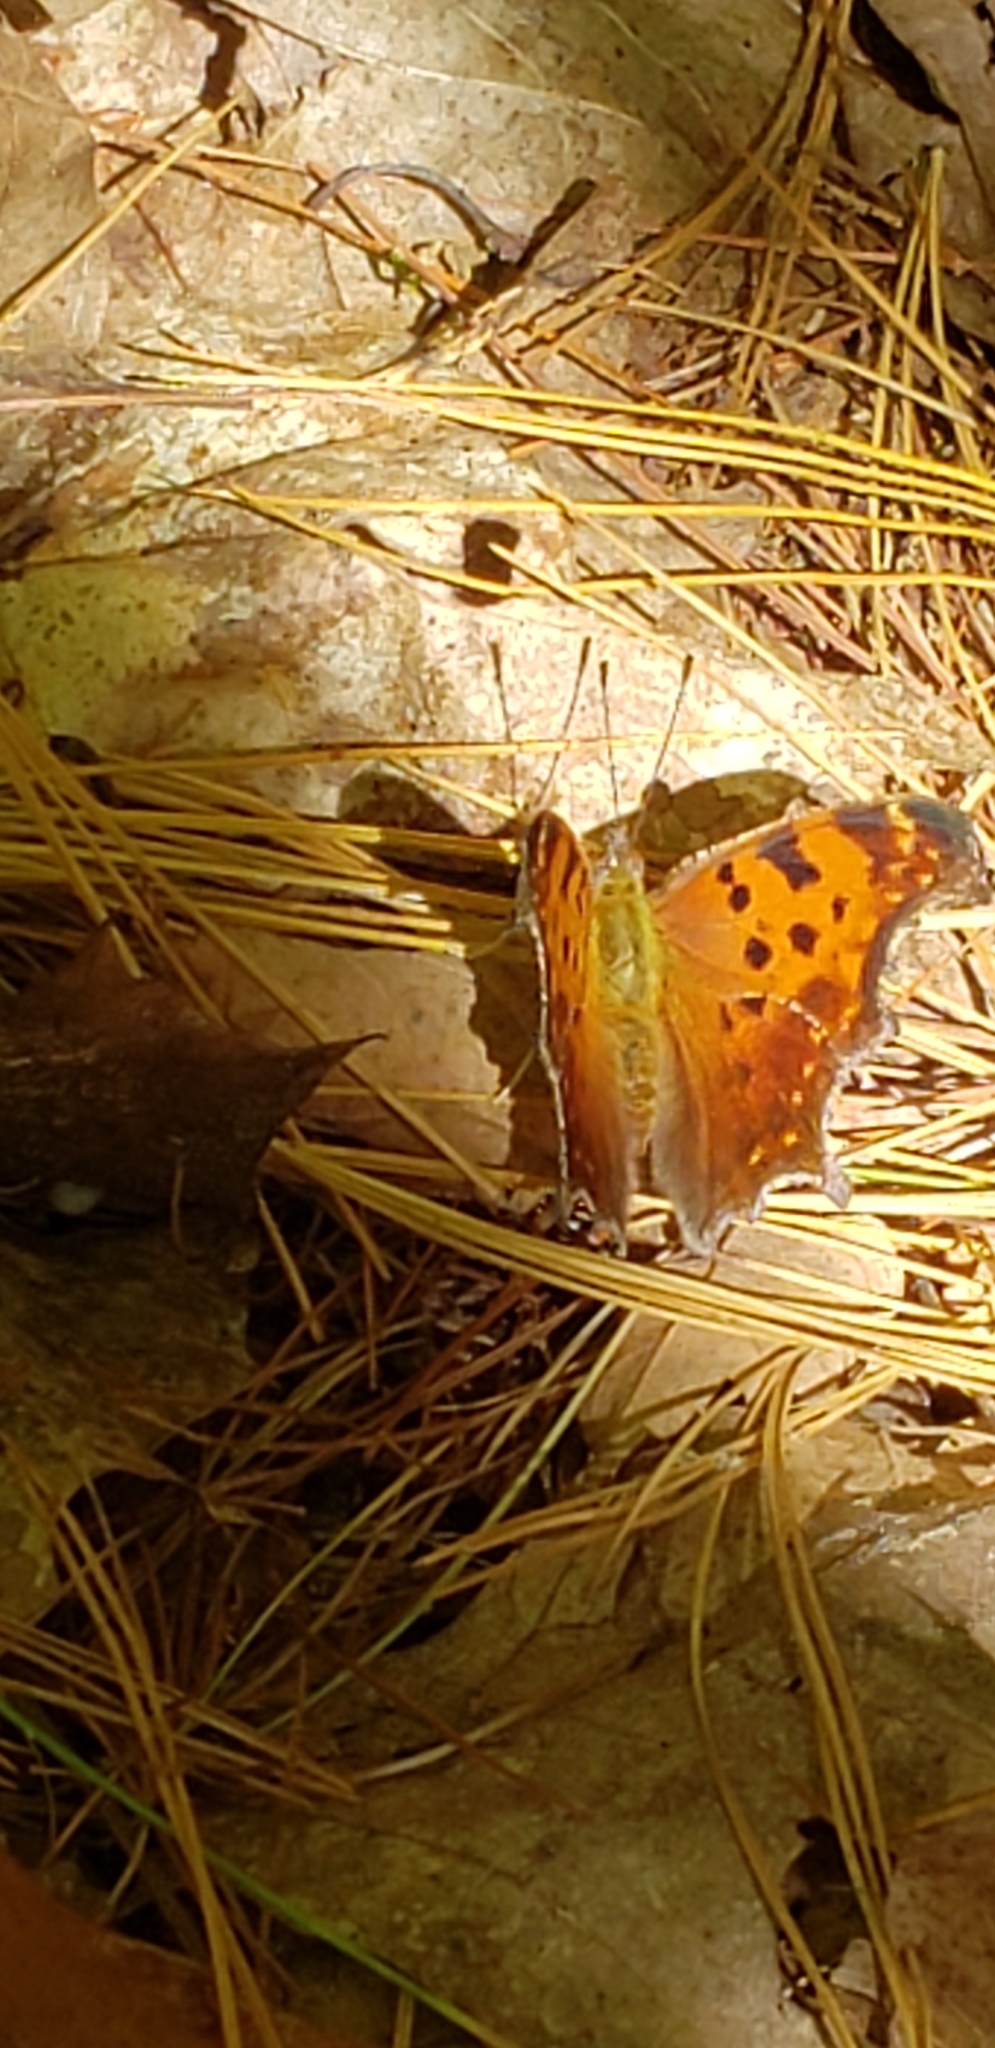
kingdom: Animalia
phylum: Arthropoda
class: Insecta
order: Lepidoptera
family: Nymphalidae
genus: Polygonia
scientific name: Polygonia comma
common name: Eastern comma
